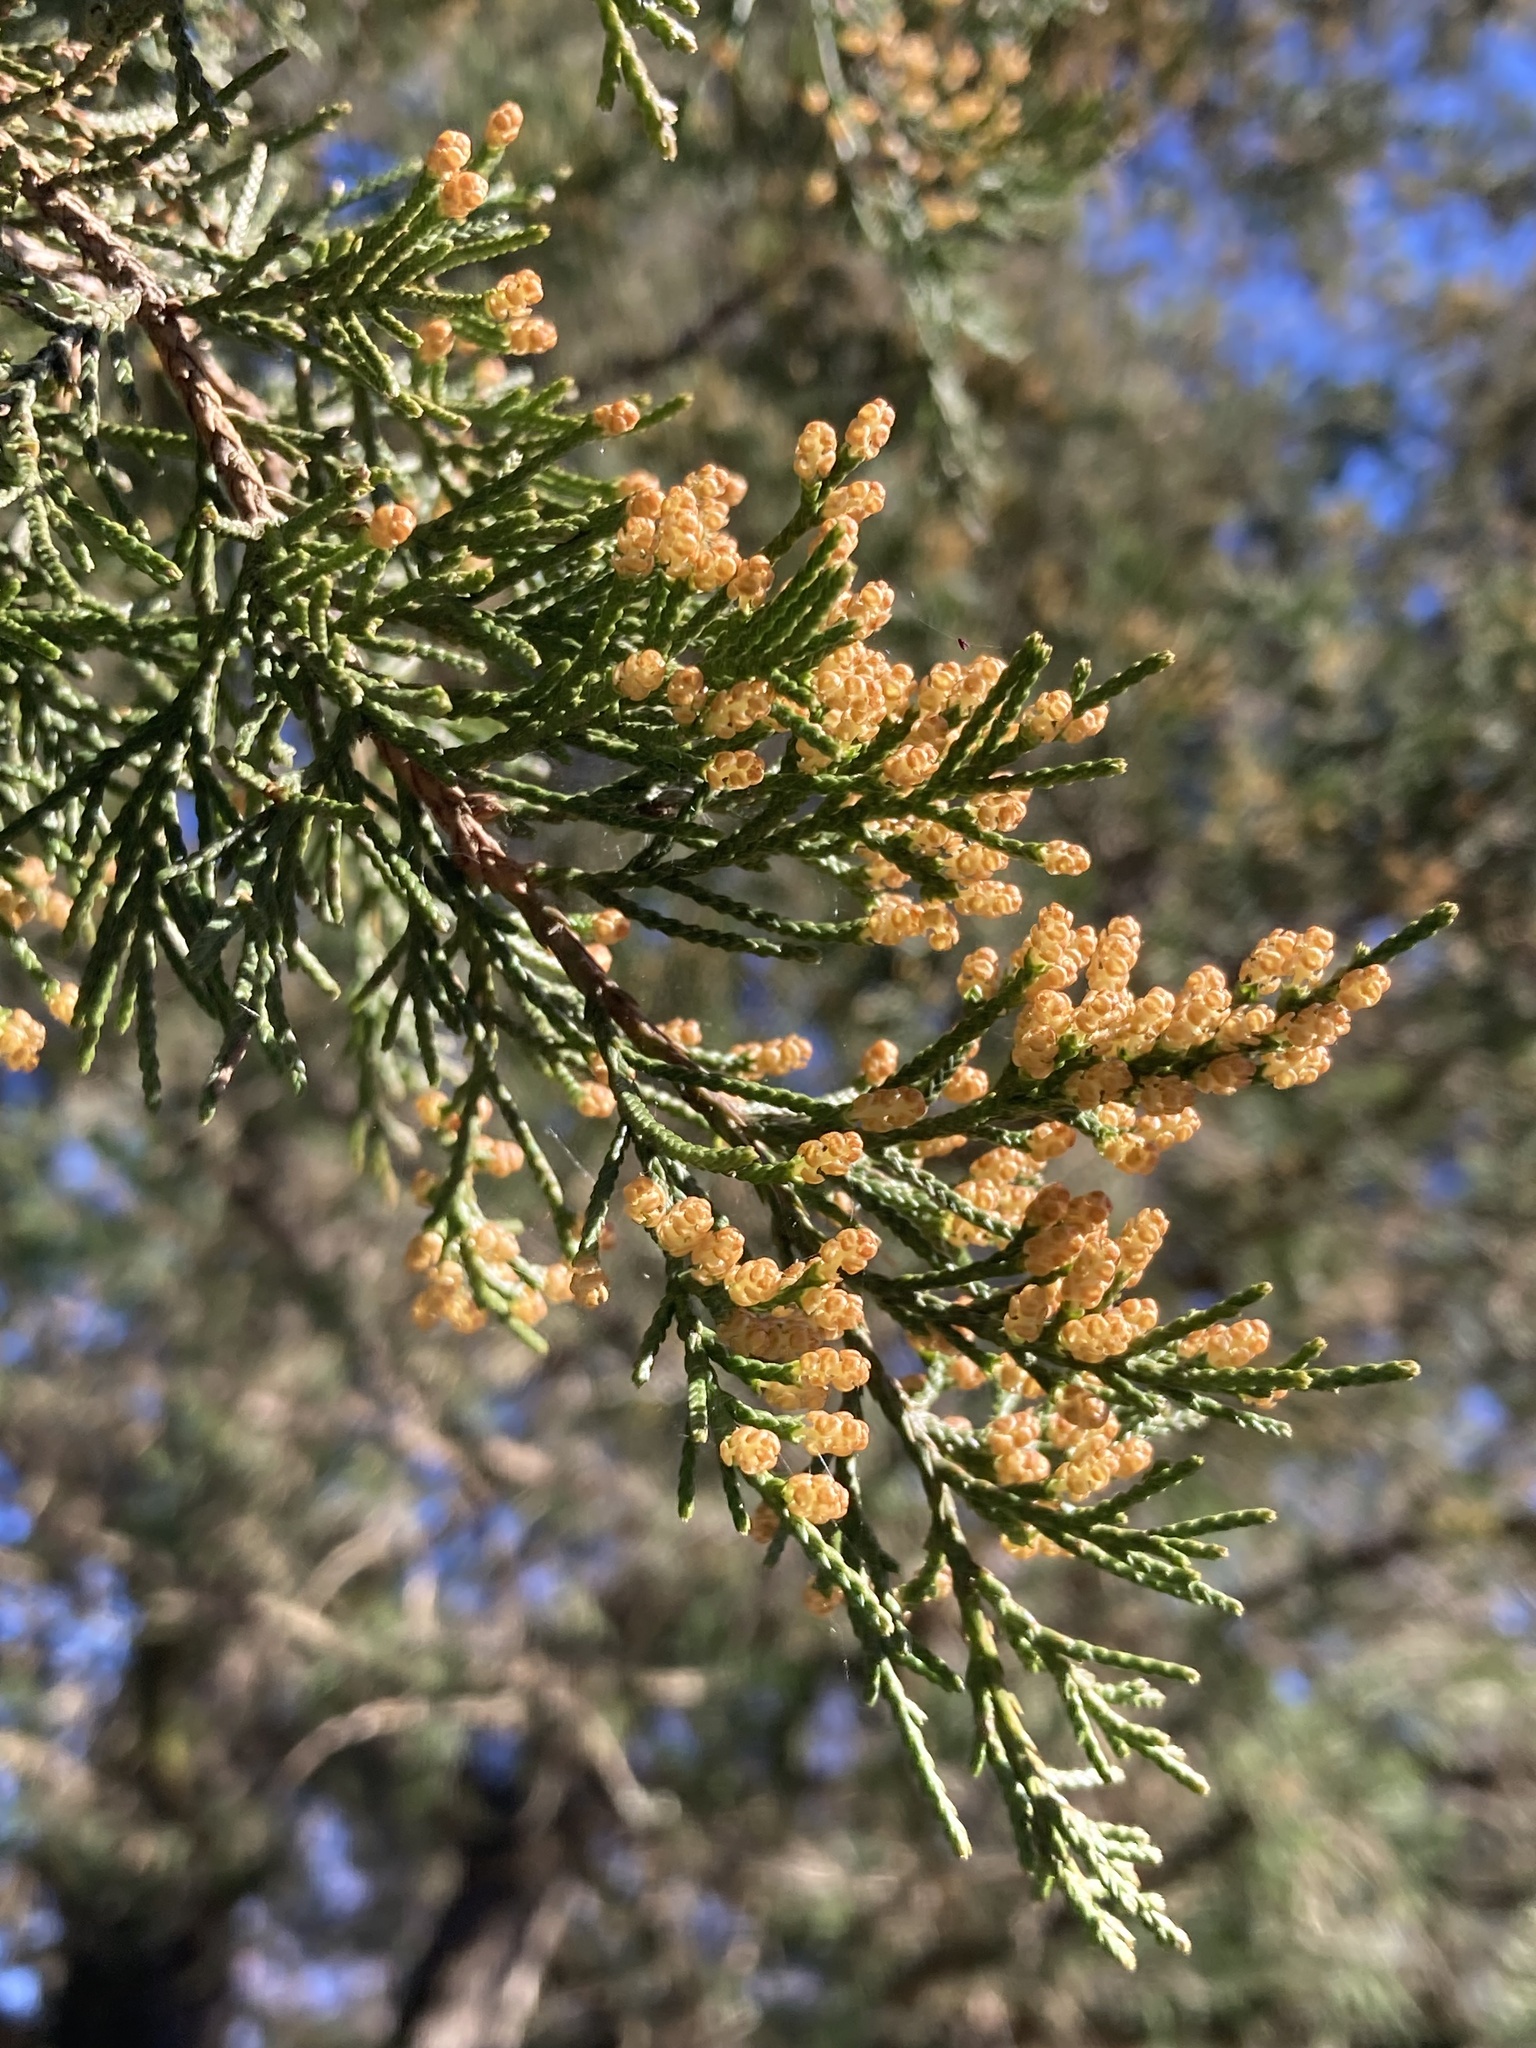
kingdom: Plantae
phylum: Tracheophyta
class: Pinopsida
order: Pinales
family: Cupressaceae
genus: Juniperus
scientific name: Juniperus virginiana
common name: Red juniper
